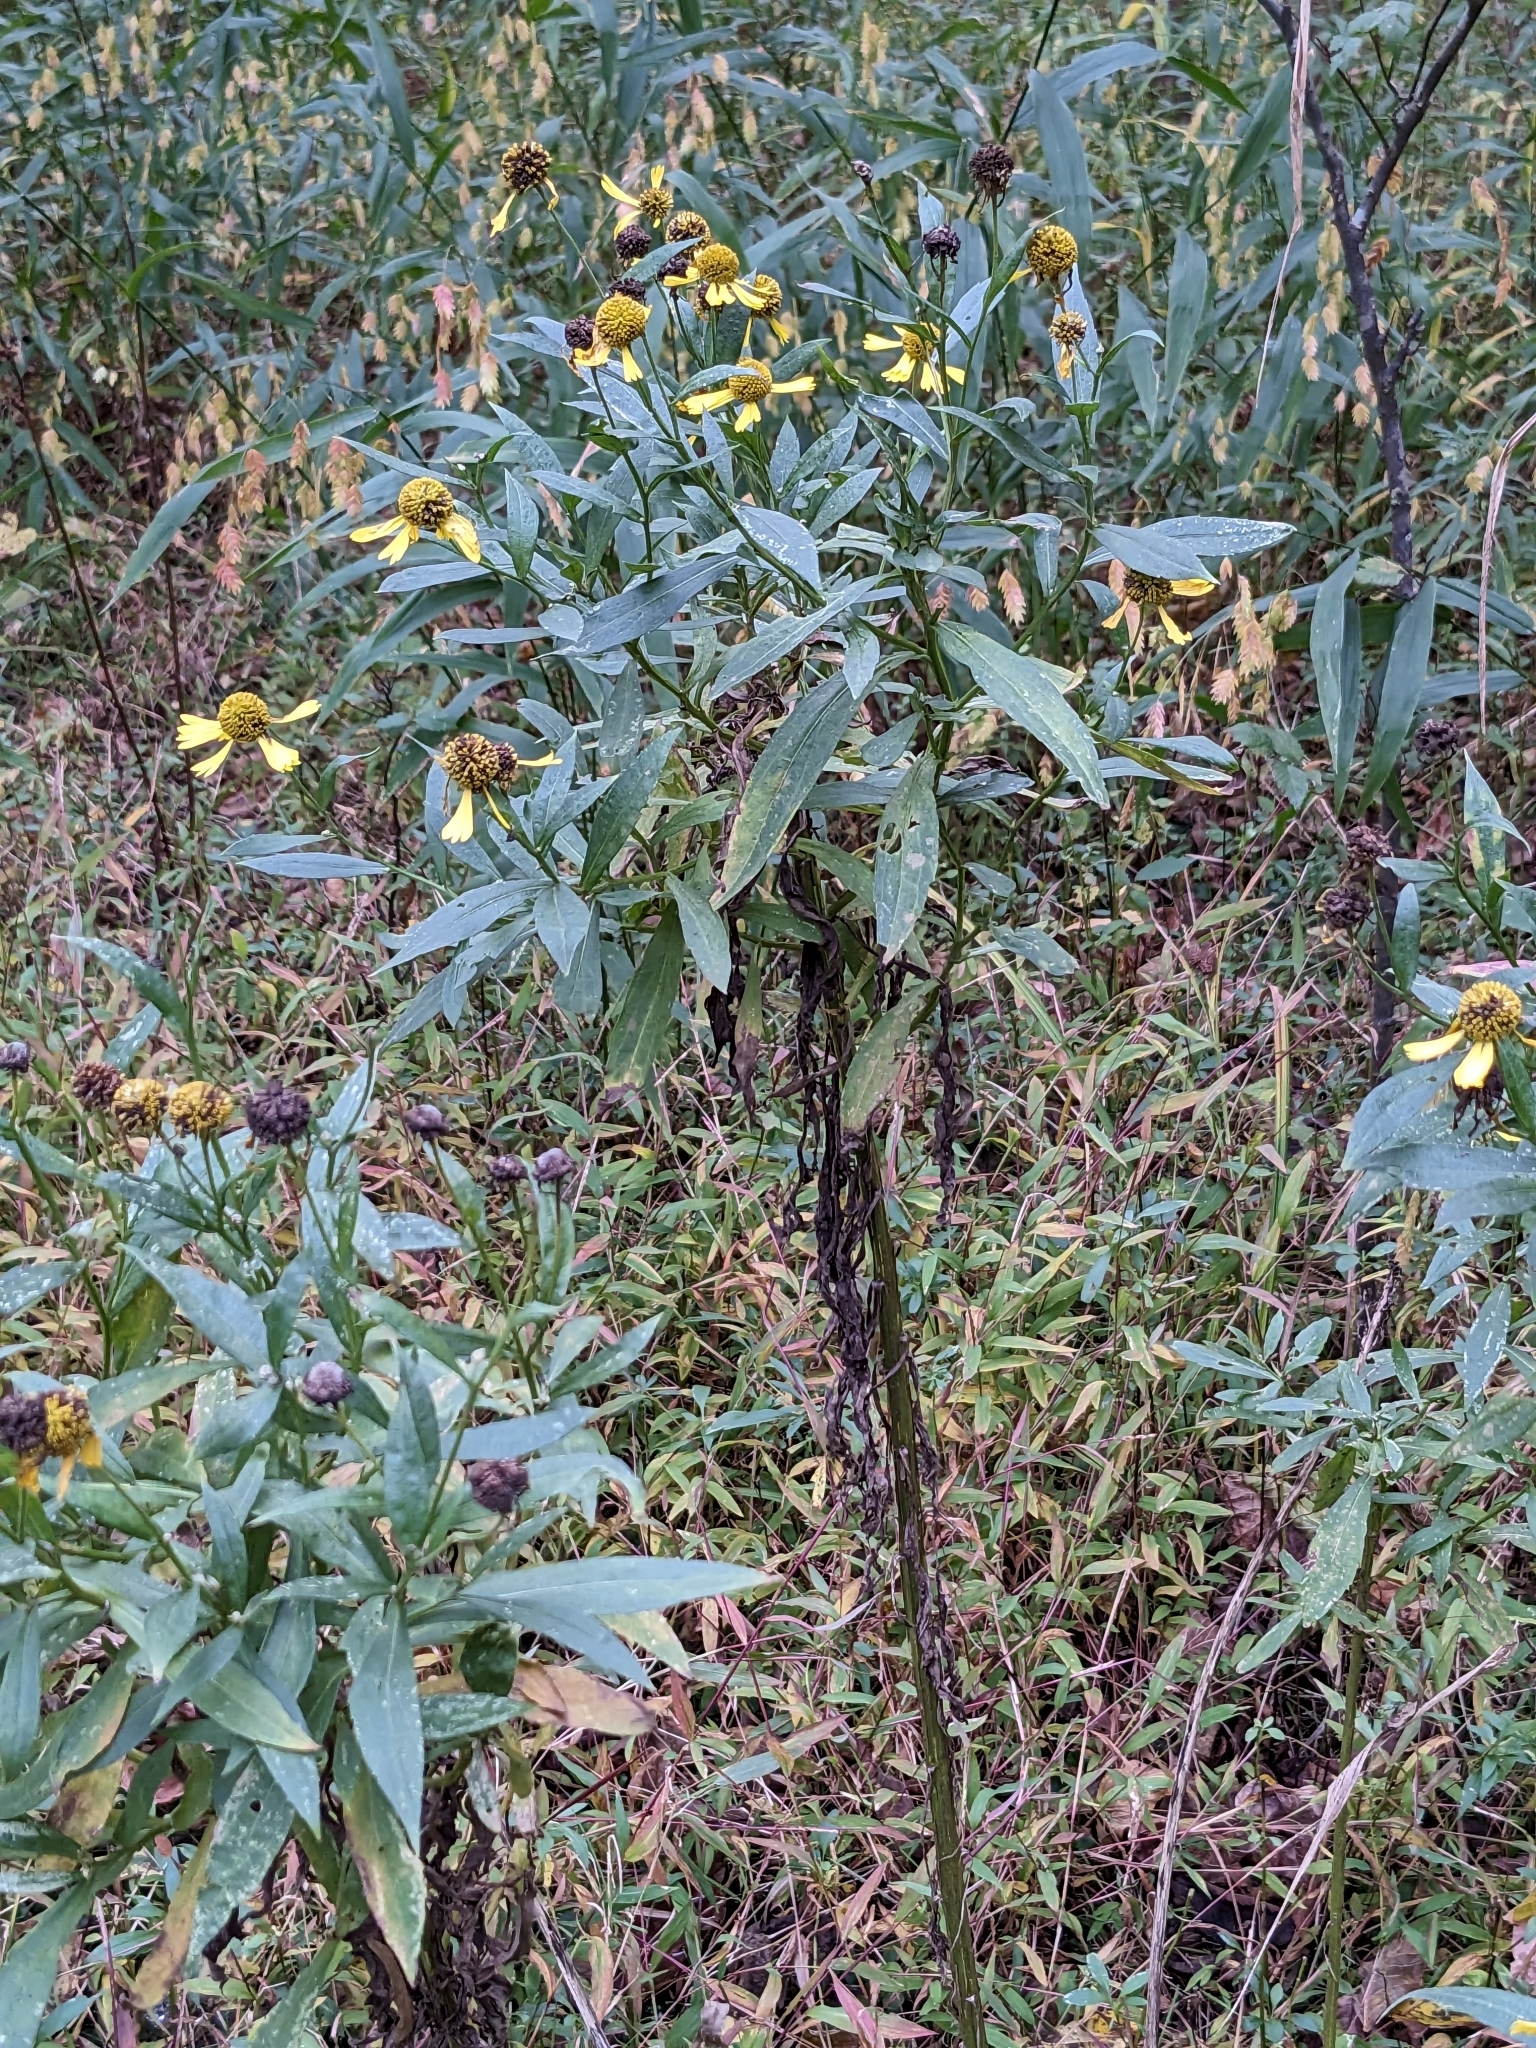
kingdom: Plantae
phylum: Tracheophyta
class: Magnoliopsida
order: Asterales
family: Asteraceae
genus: Helenium
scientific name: Helenium autumnale
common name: Sneezeweed
